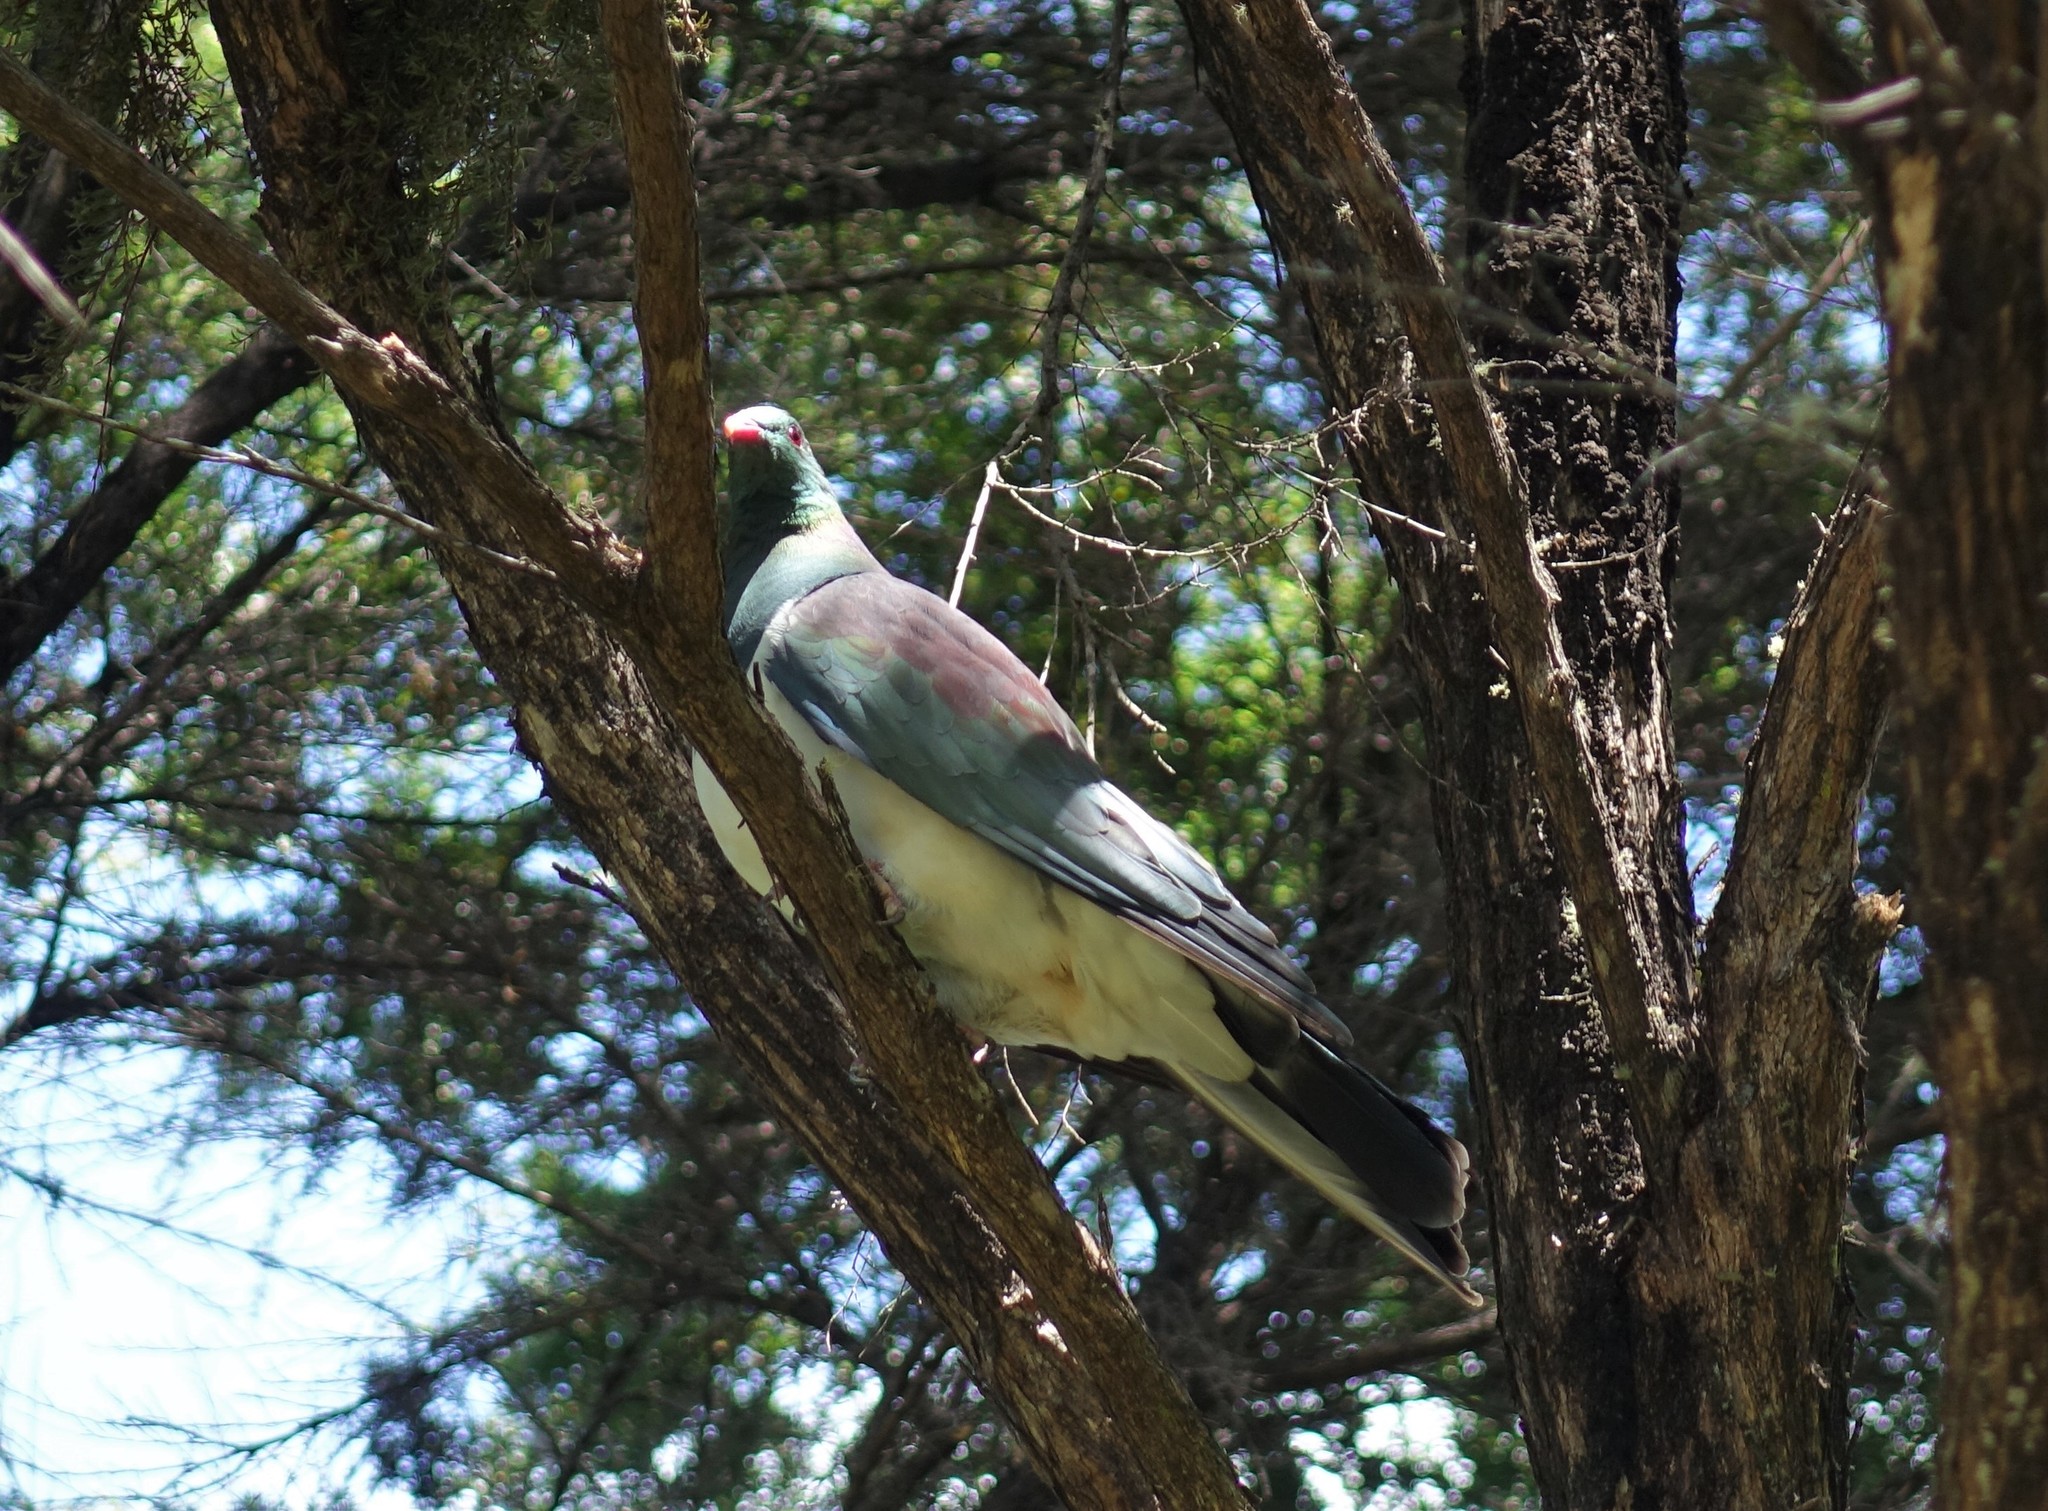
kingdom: Animalia
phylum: Chordata
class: Aves
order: Columbiformes
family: Columbidae
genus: Hemiphaga
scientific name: Hemiphaga novaeseelandiae
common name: New zealand pigeon
